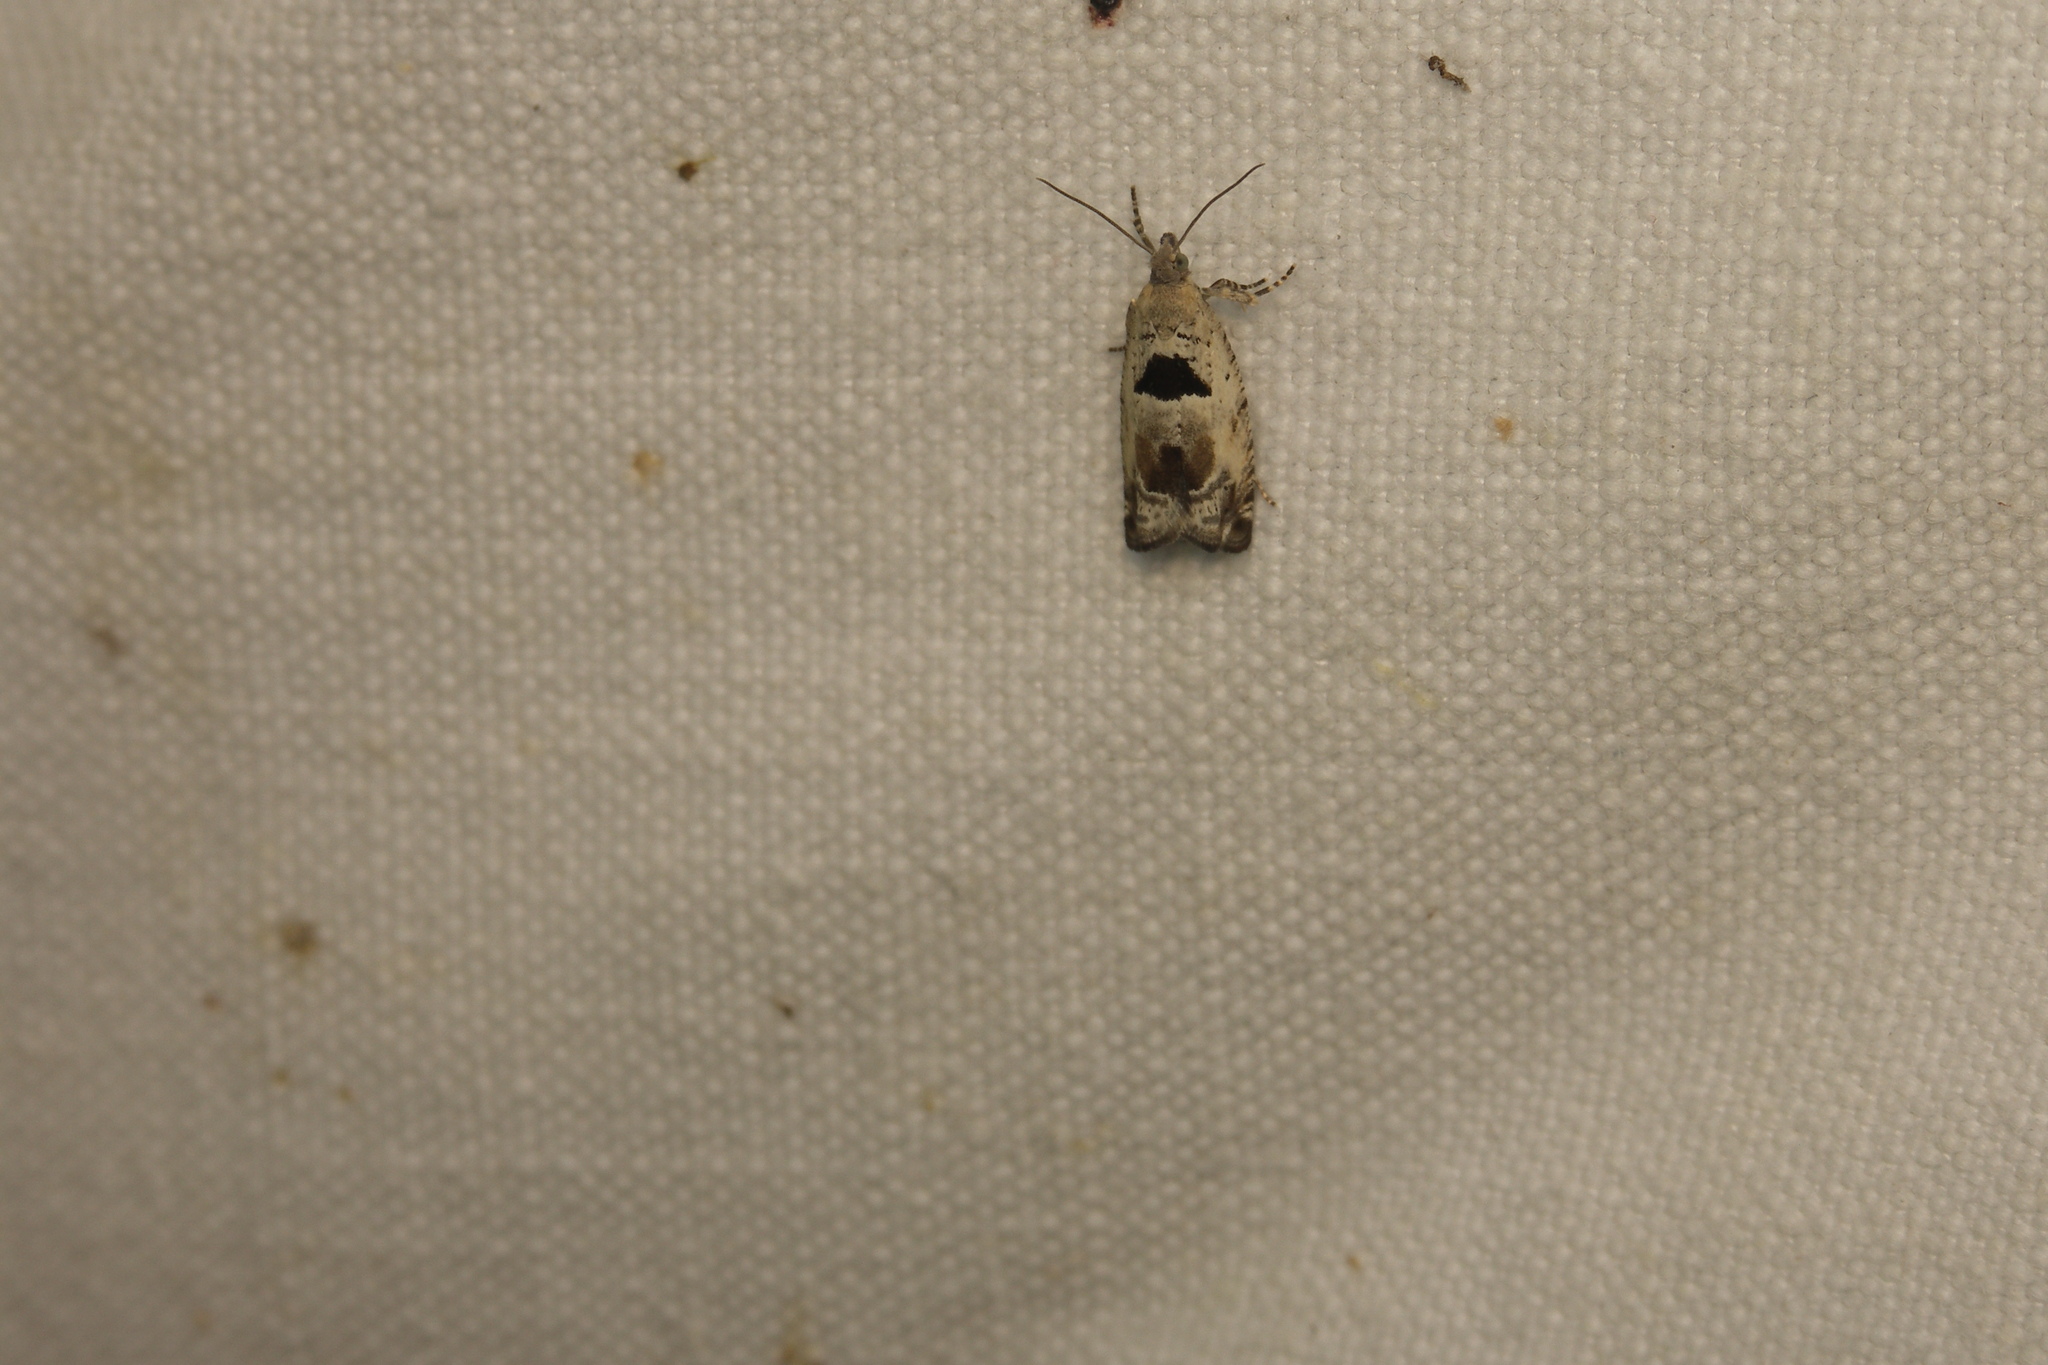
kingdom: Animalia
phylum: Arthropoda
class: Insecta
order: Lepidoptera
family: Tortricidae
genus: Epinotia
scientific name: Epinotia ramella
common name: Small birch bell
